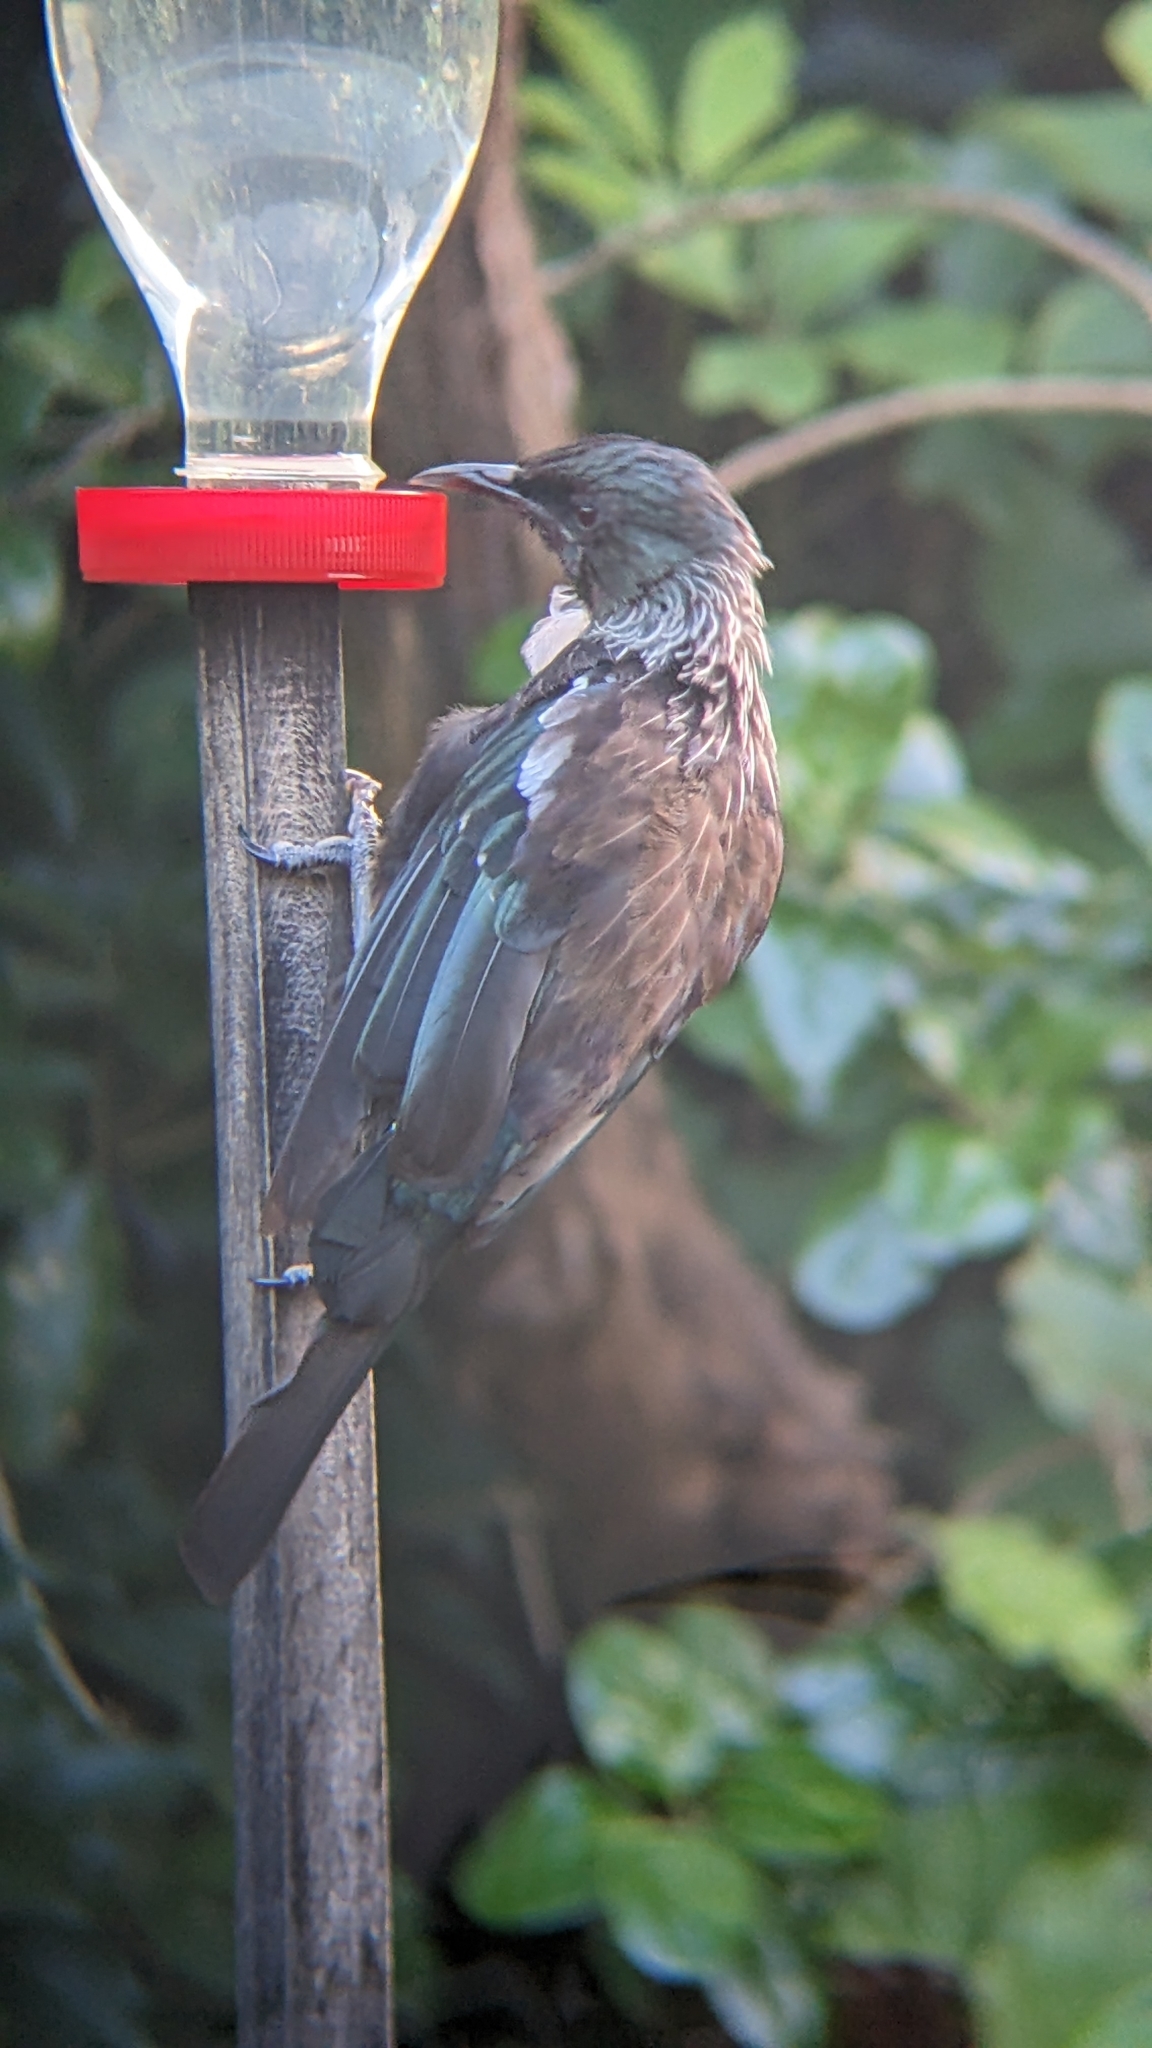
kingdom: Animalia
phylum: Chordata
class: Aves
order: Passeriformes
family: Meliphagidae
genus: Prosthemadera
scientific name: Prosthemadera novaeseelandiae
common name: Tui
